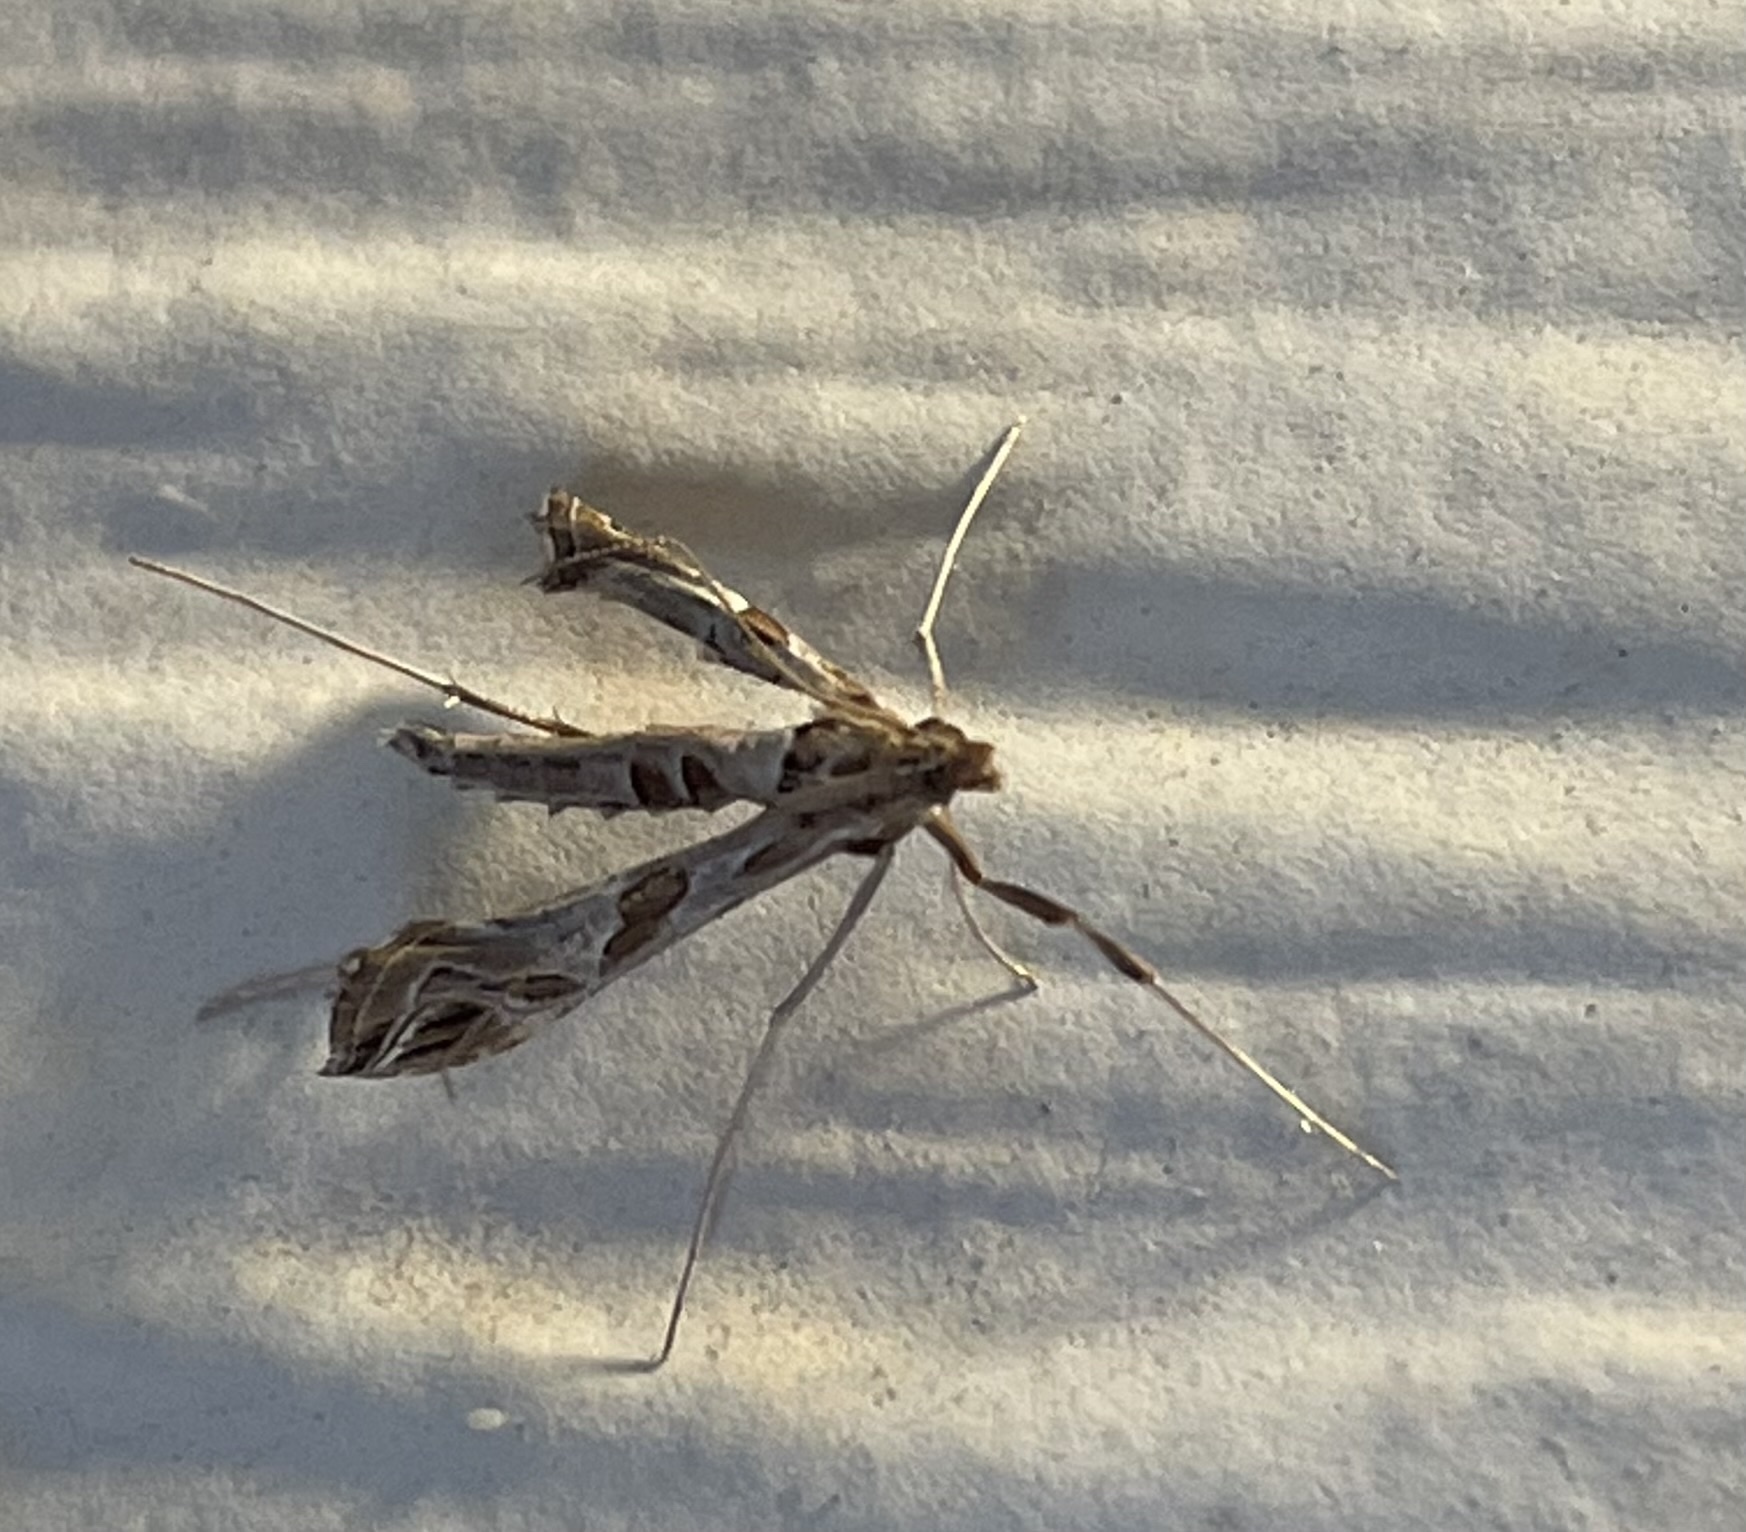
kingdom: Animalia
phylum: Arthropoda
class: Insecta
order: Lepidoptera
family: Crambidae
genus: Lineodes
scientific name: Lineodes interrupta
